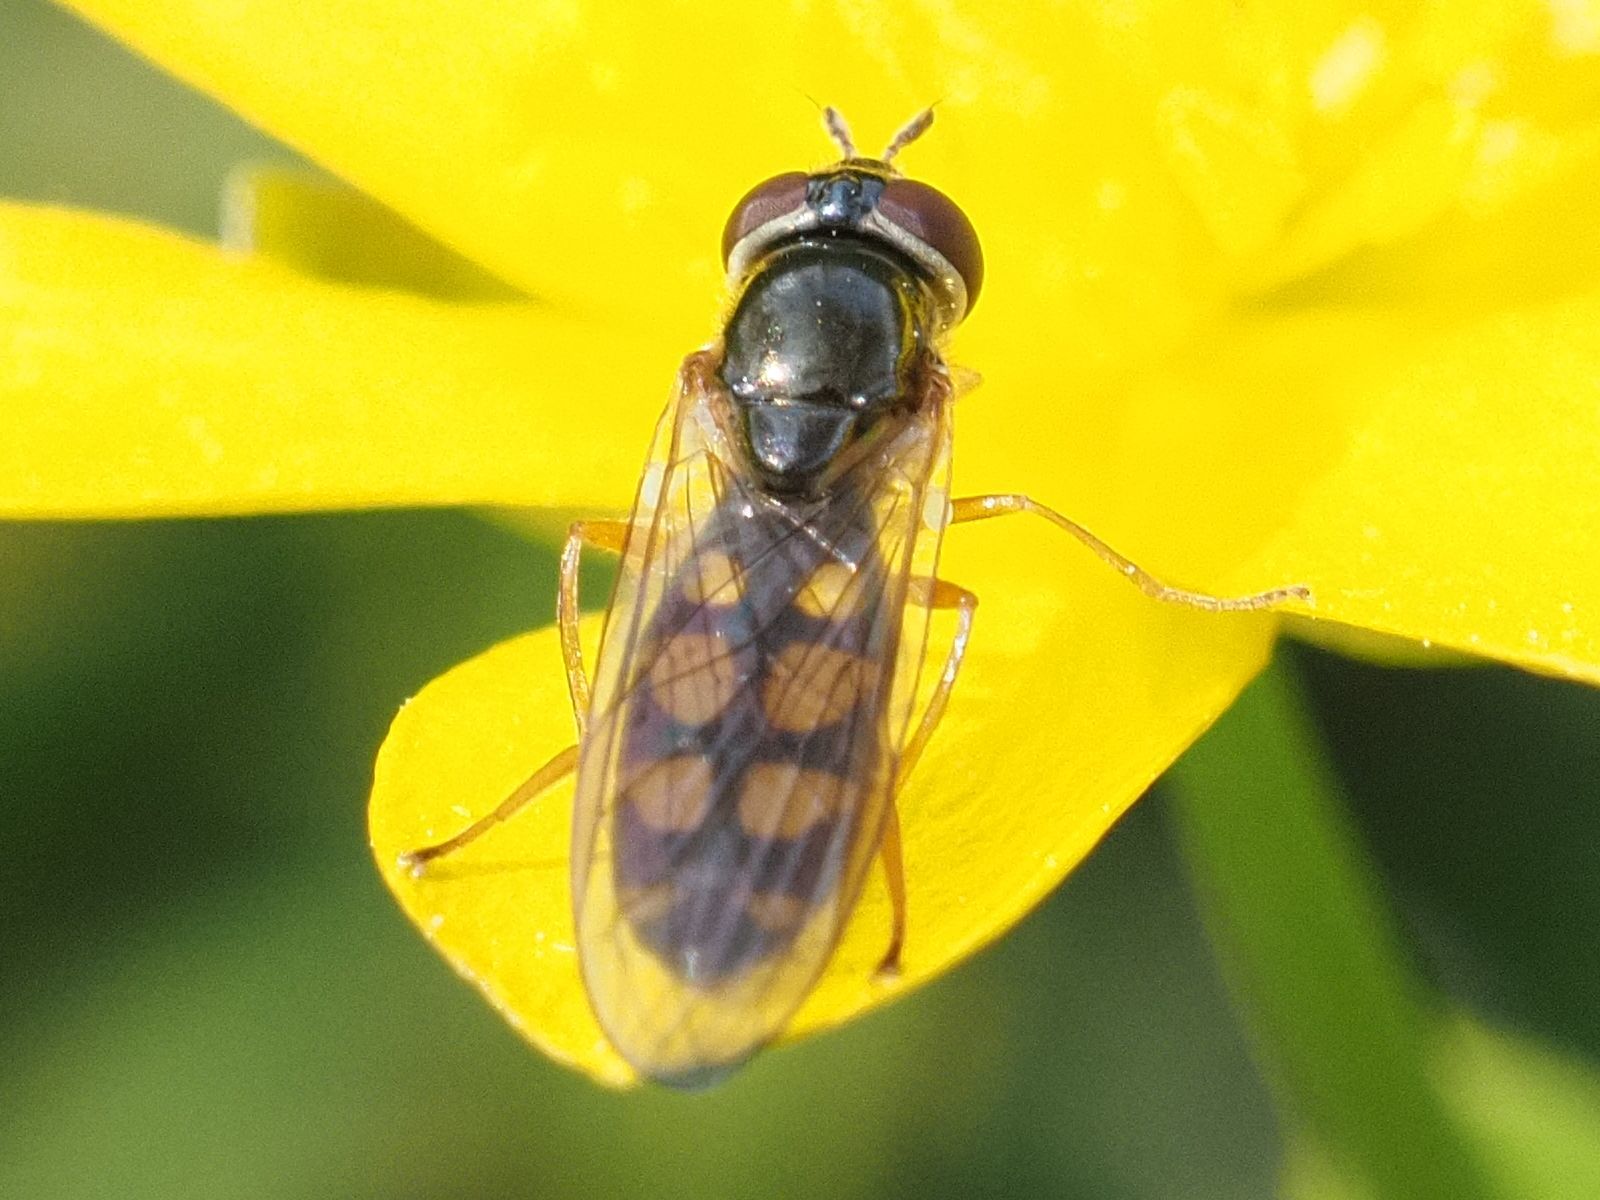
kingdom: Animalia
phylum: Arthropoda
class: Insecta
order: Diptera
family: Syrphidae
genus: Melanostoma
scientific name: Melanostoma scalare
